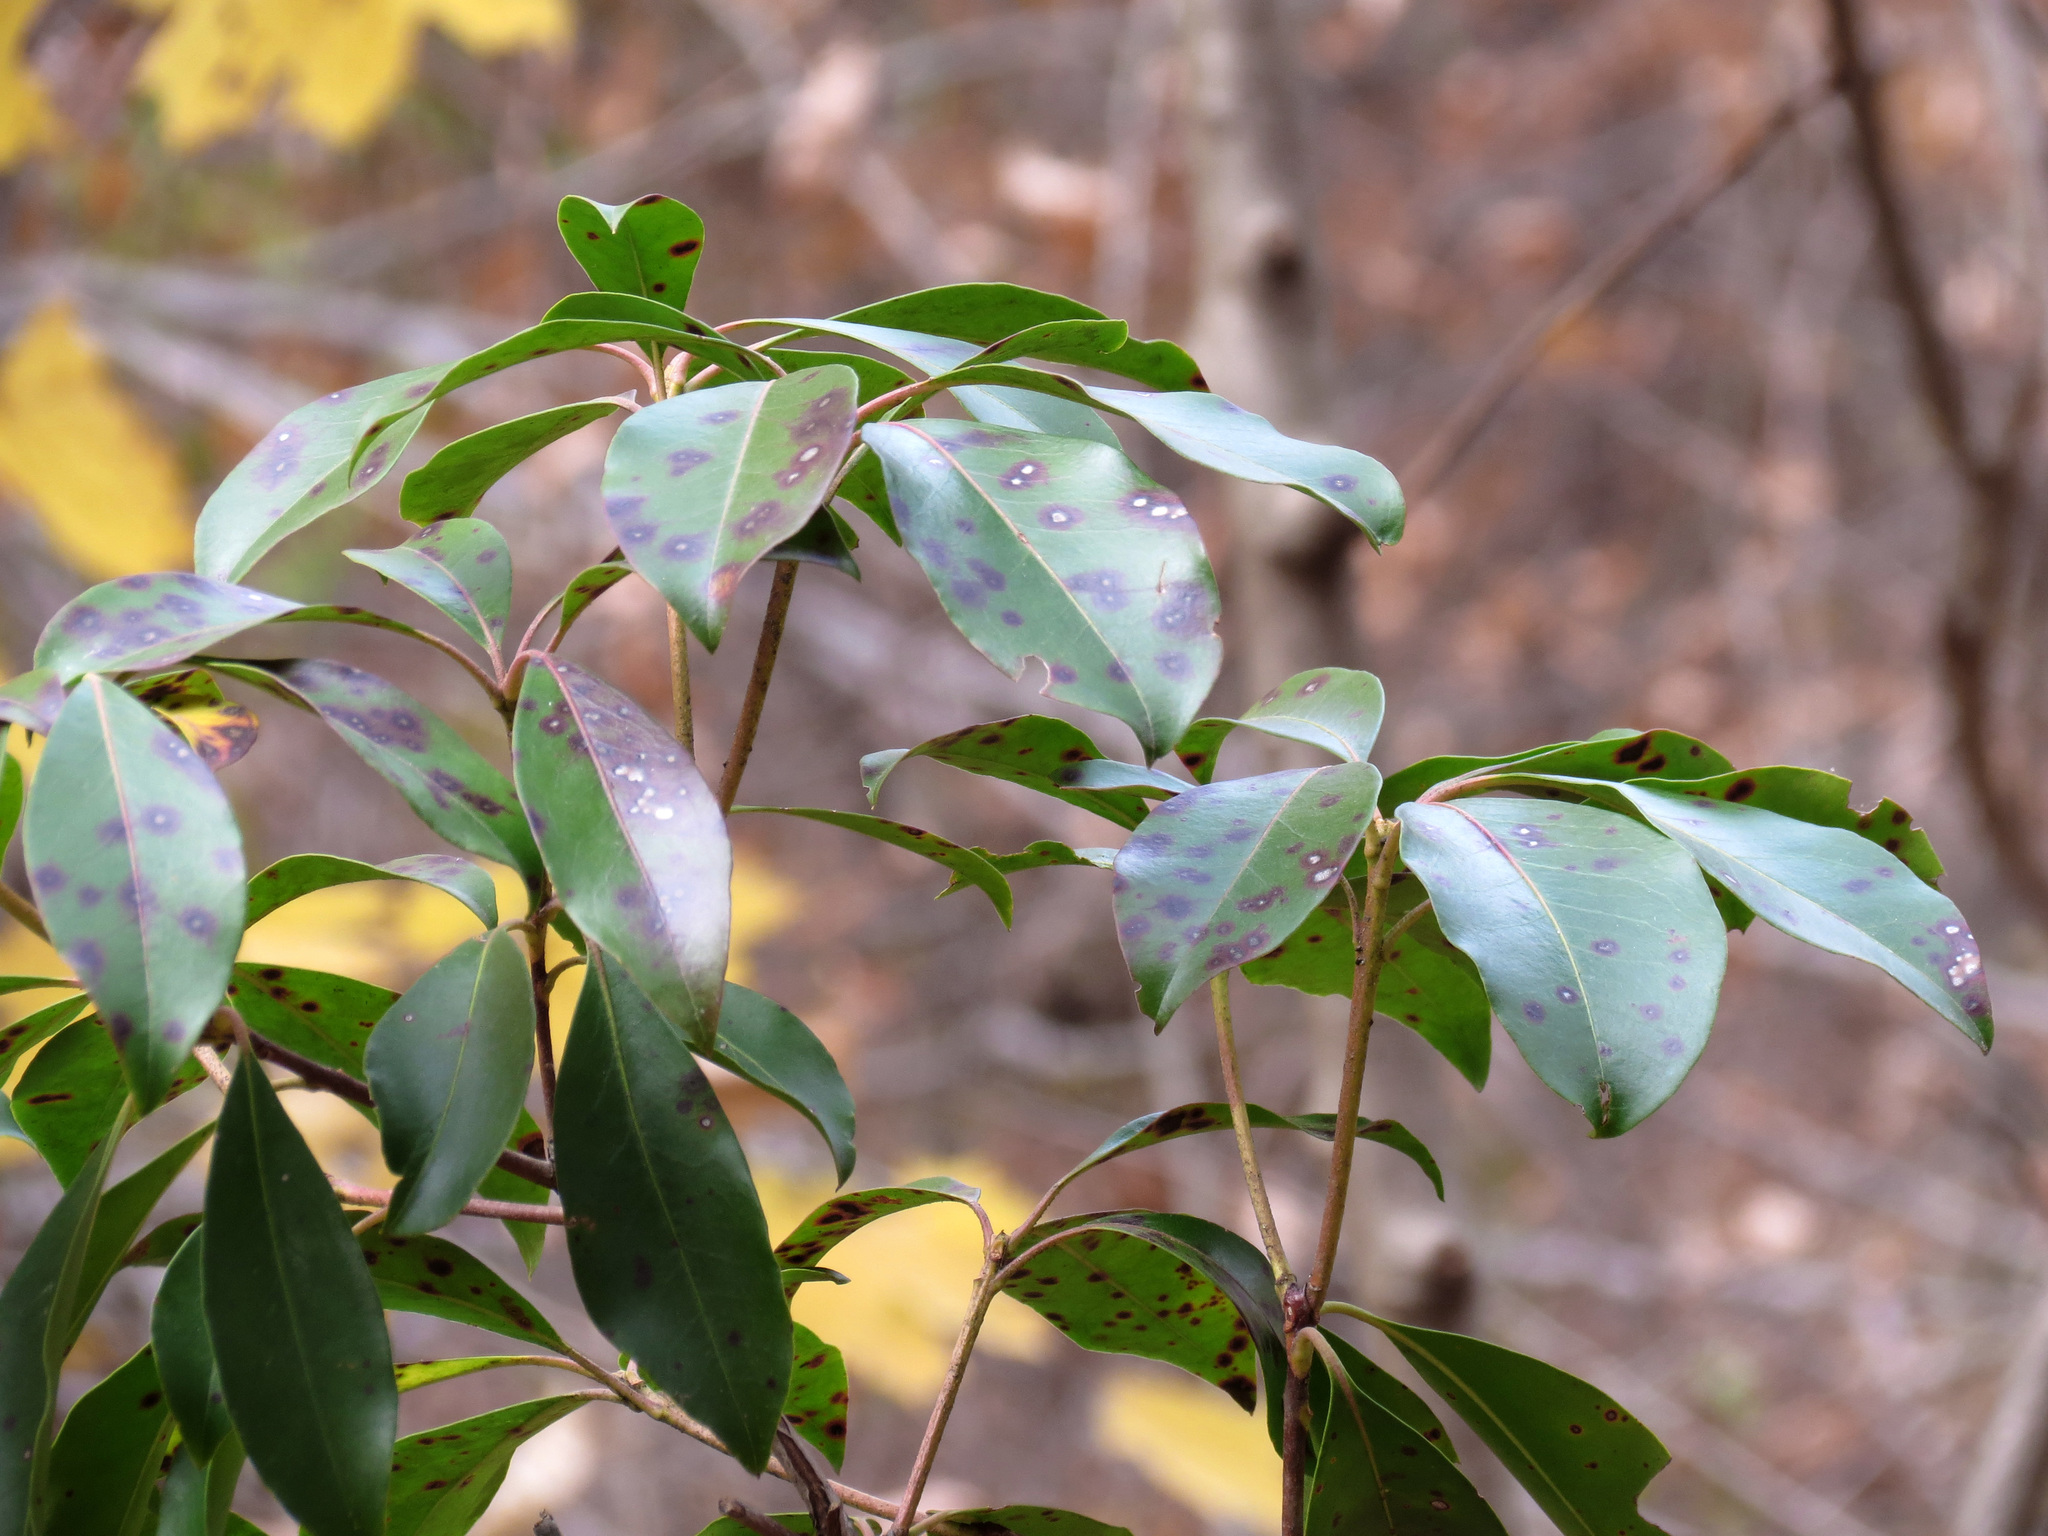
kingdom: Plantae
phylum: Tracheophyta
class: Magnoliopsida
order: Ericales
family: Ericaceae
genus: Kalmia
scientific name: Kalmia latifolia
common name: Mountain-laurel
